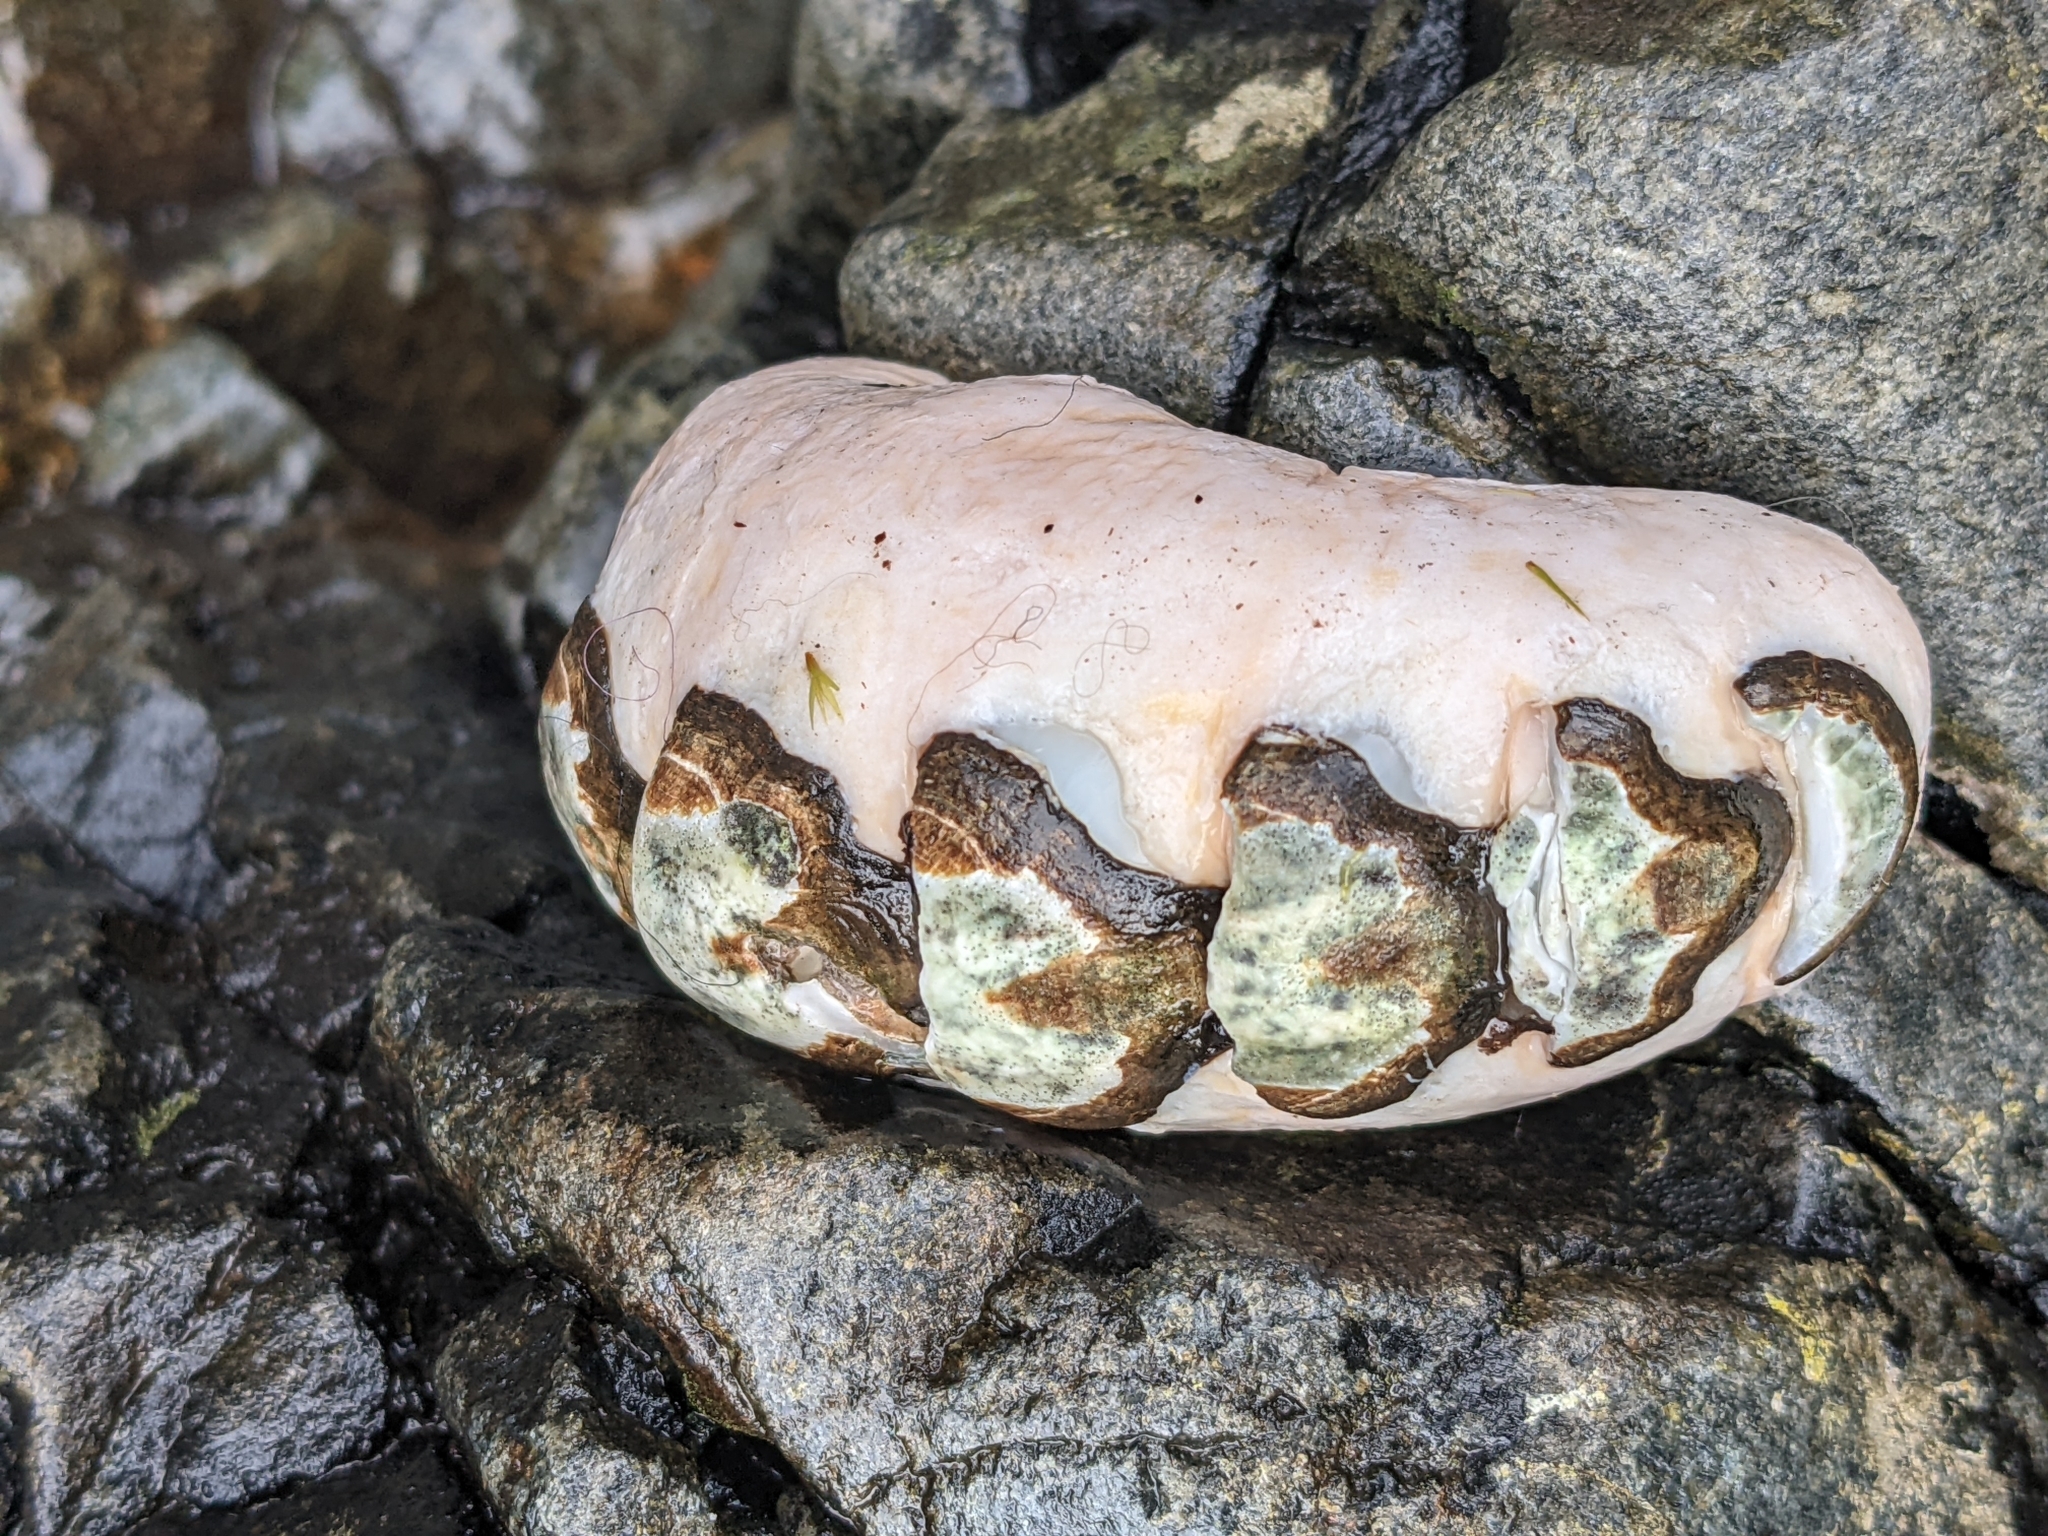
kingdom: Animalia
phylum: Mollusca
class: Polyplacophora
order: Chitonida
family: Mopaliidae
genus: Katharina
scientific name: Katharina tunicata
